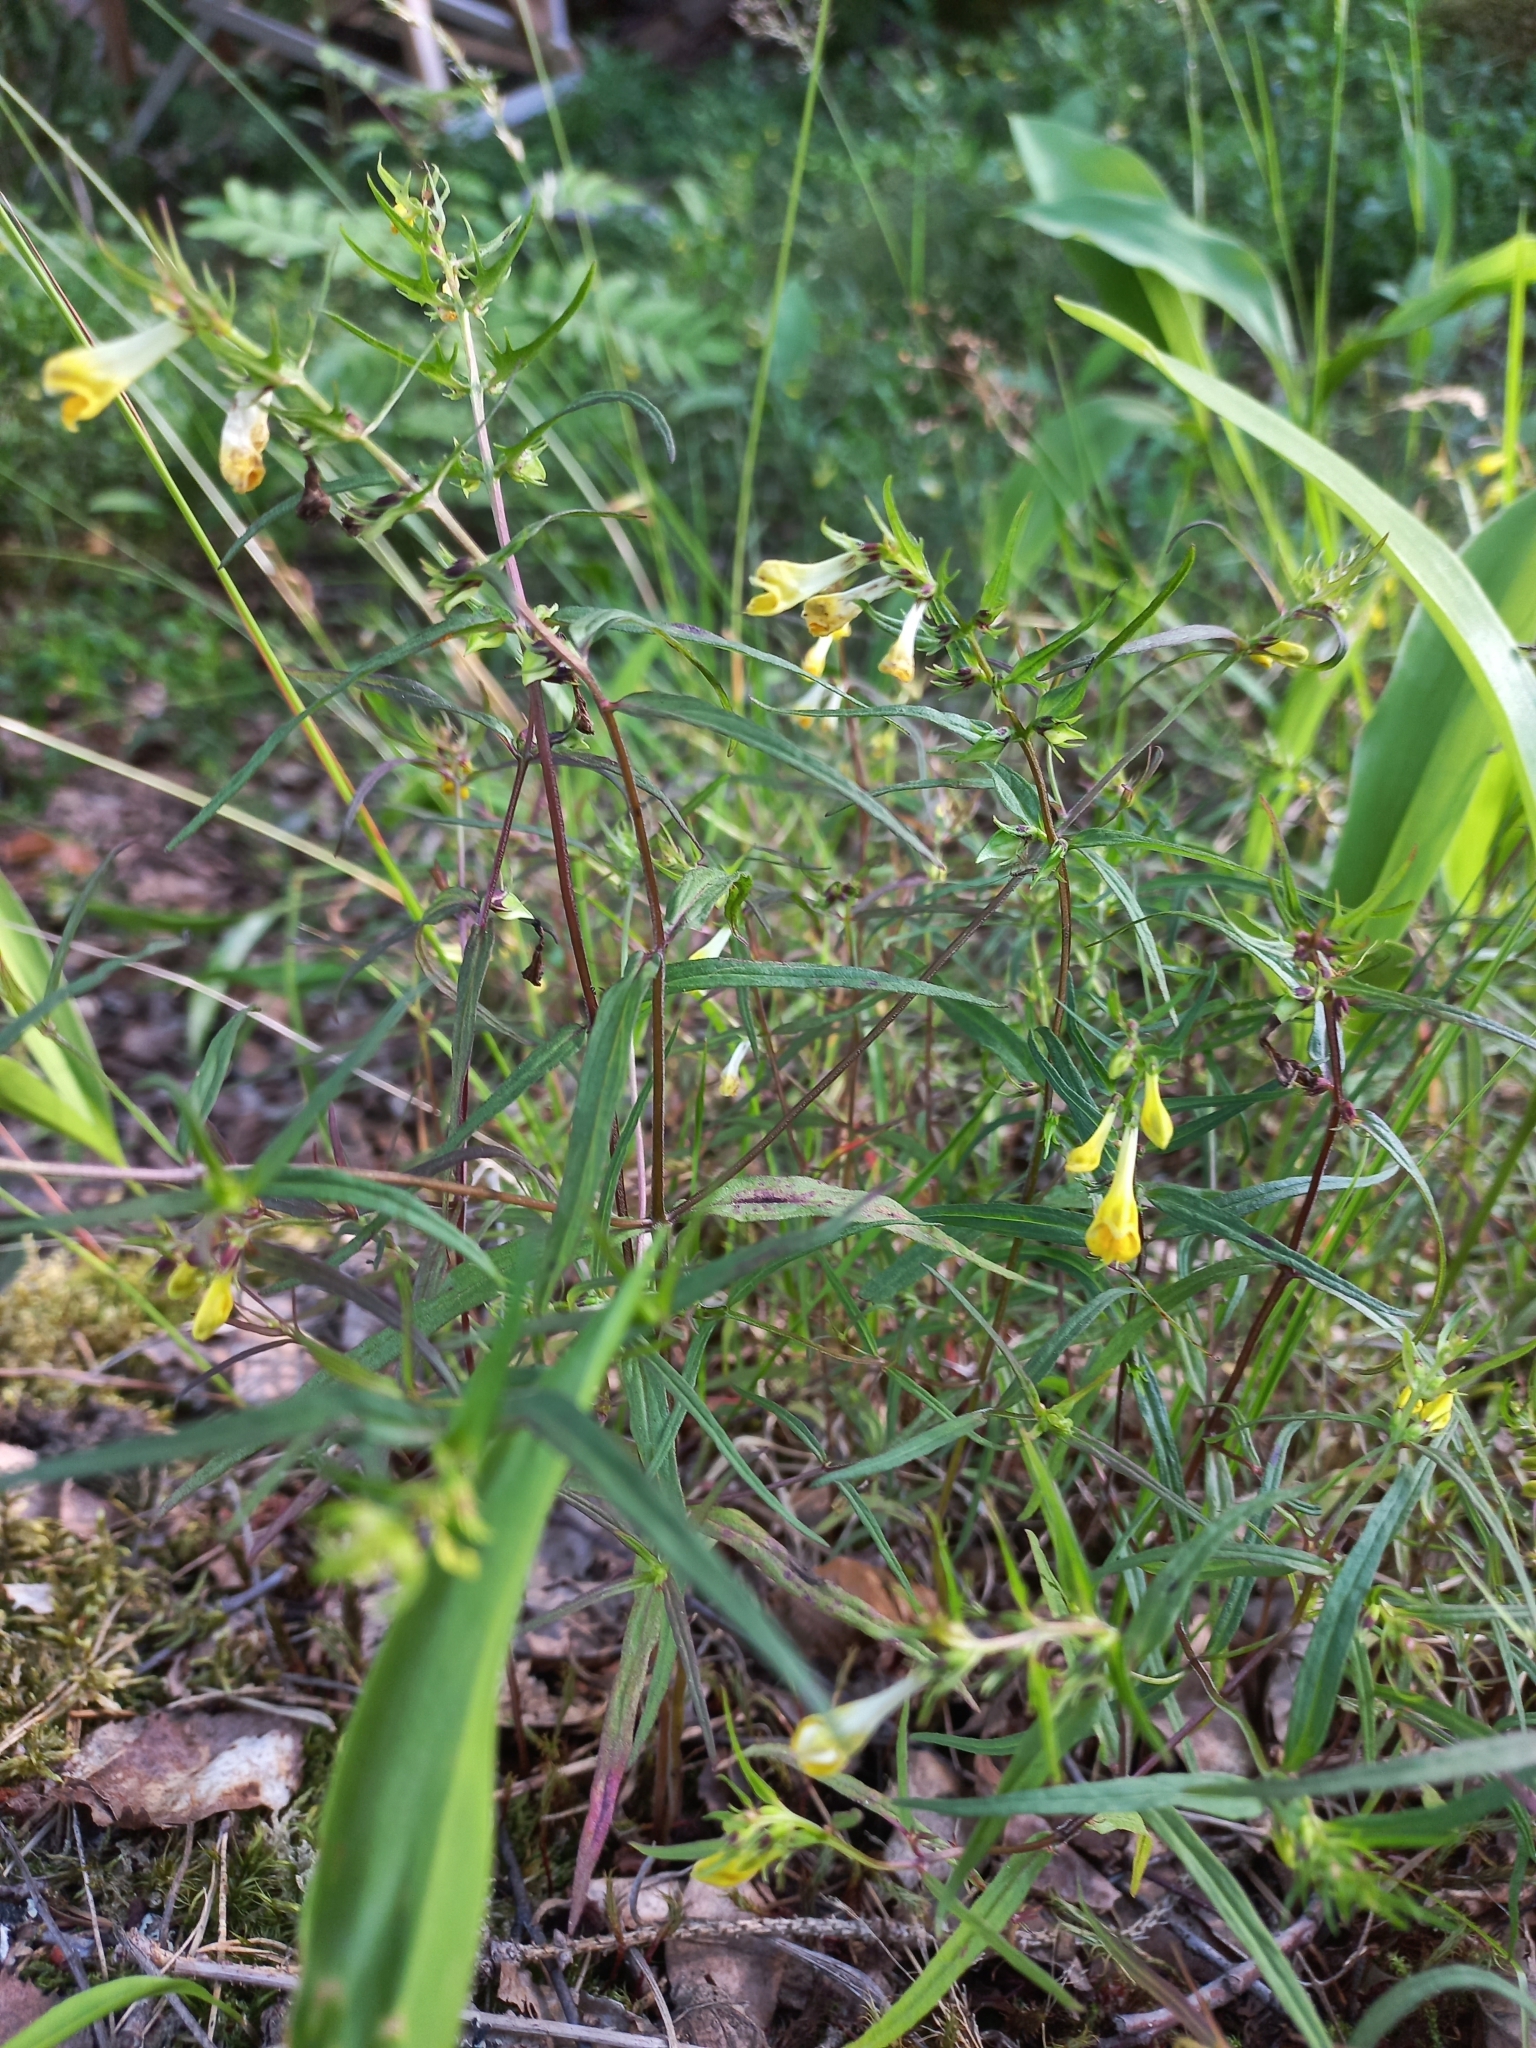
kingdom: Plantae
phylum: Tracheophyta
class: Magnoliopsida
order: Lamiales
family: Orobanchaceae
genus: Melampyrum
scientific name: Melampyrum pratense
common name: Common cow-wheat
